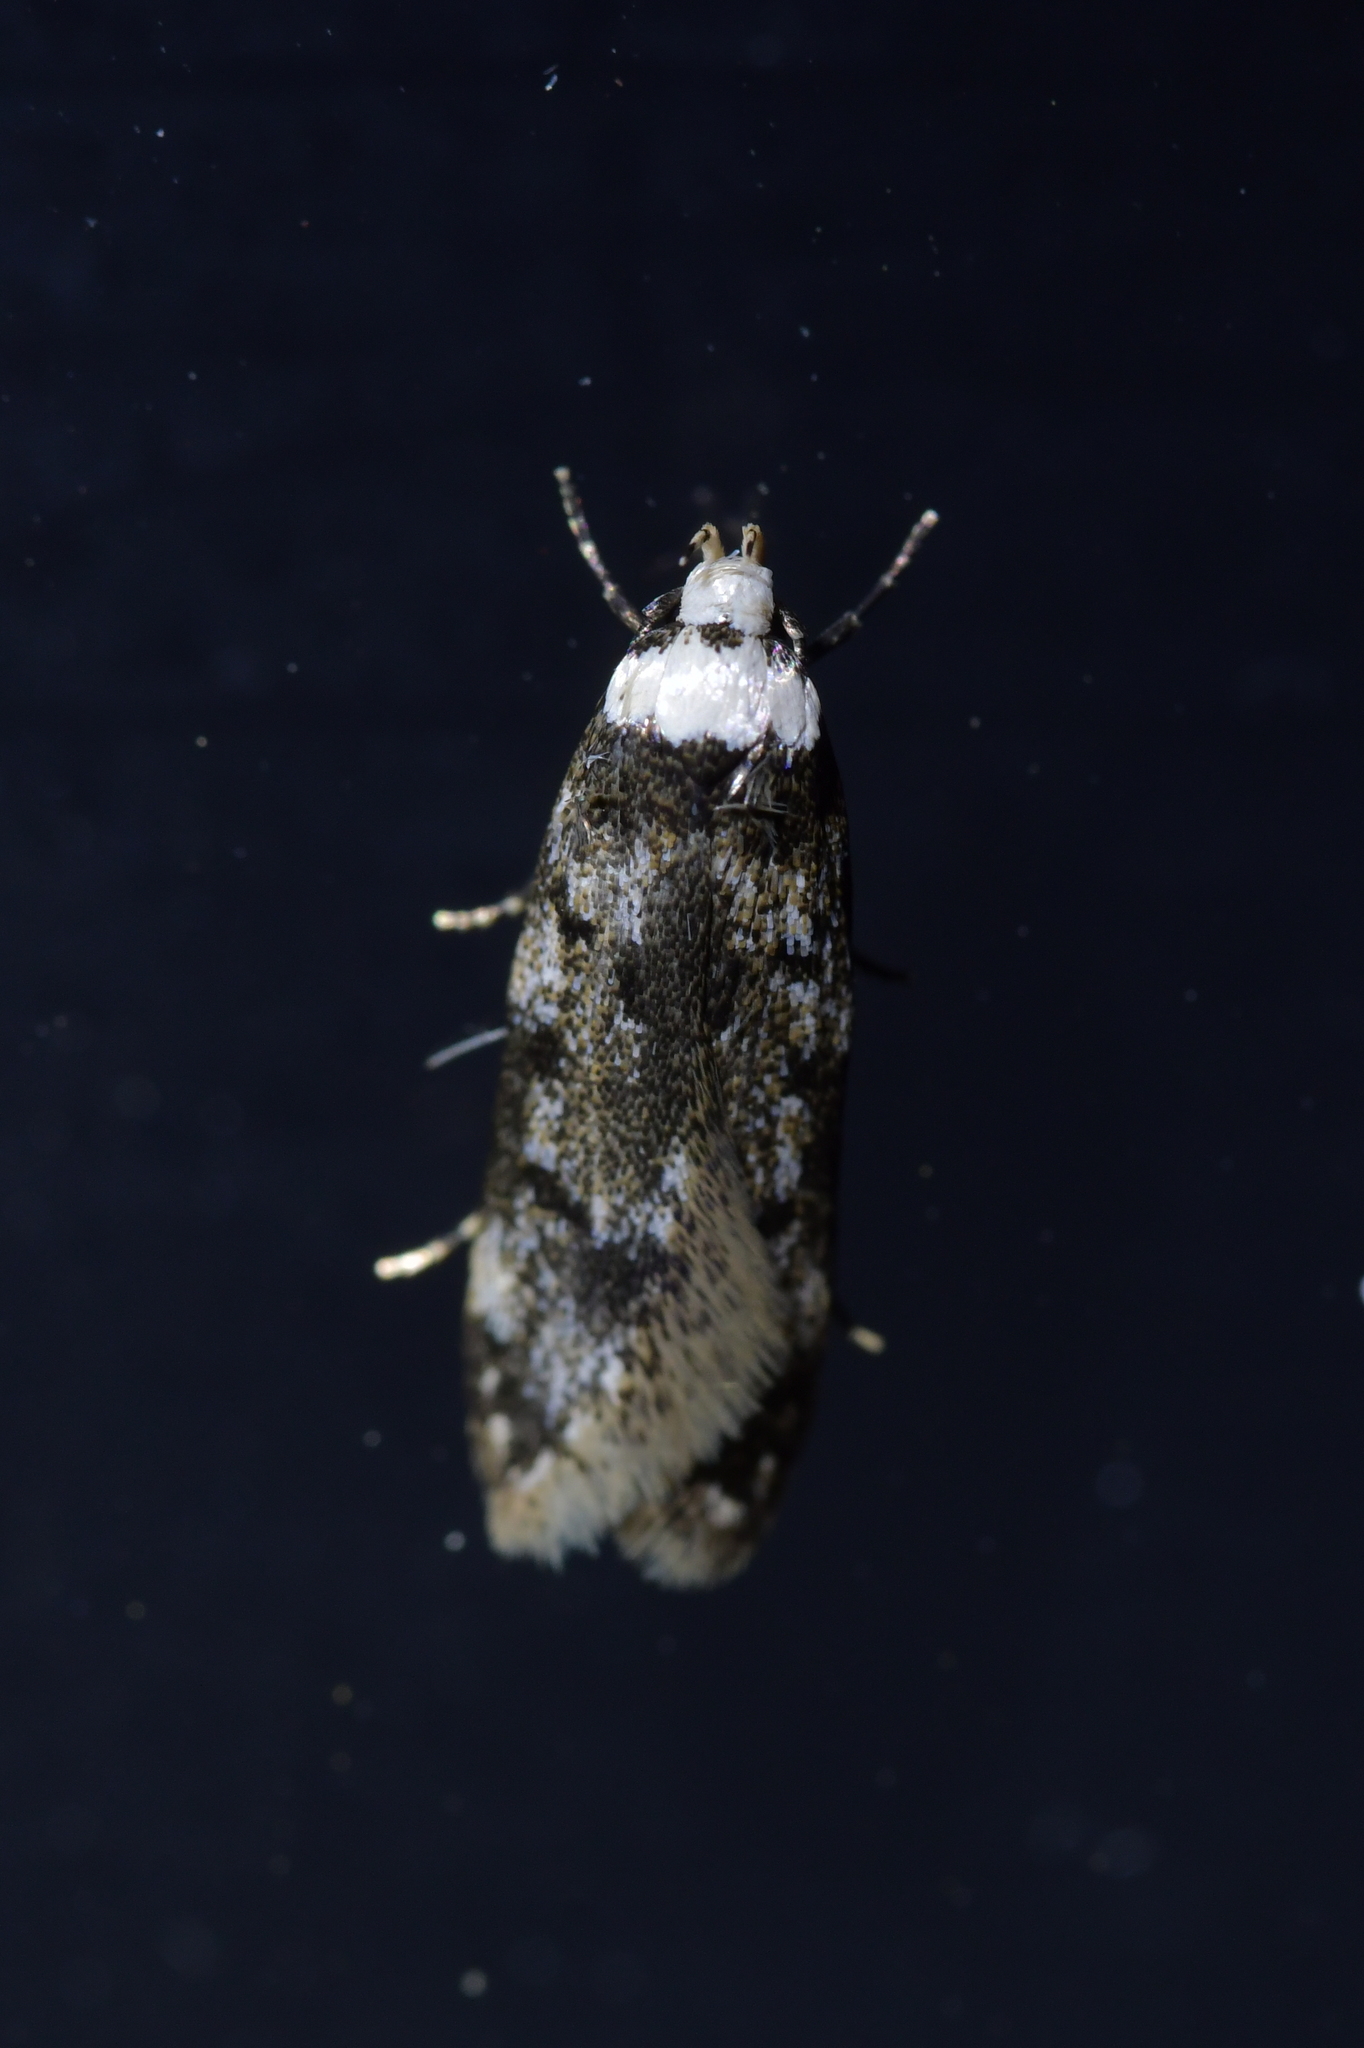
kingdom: Animalia
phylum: Arthropoda
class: Insecta
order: Lepidoptera
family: Oecophoridae
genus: Endrosis
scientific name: Endrosis sarcitrella
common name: White-shouldered house moth
